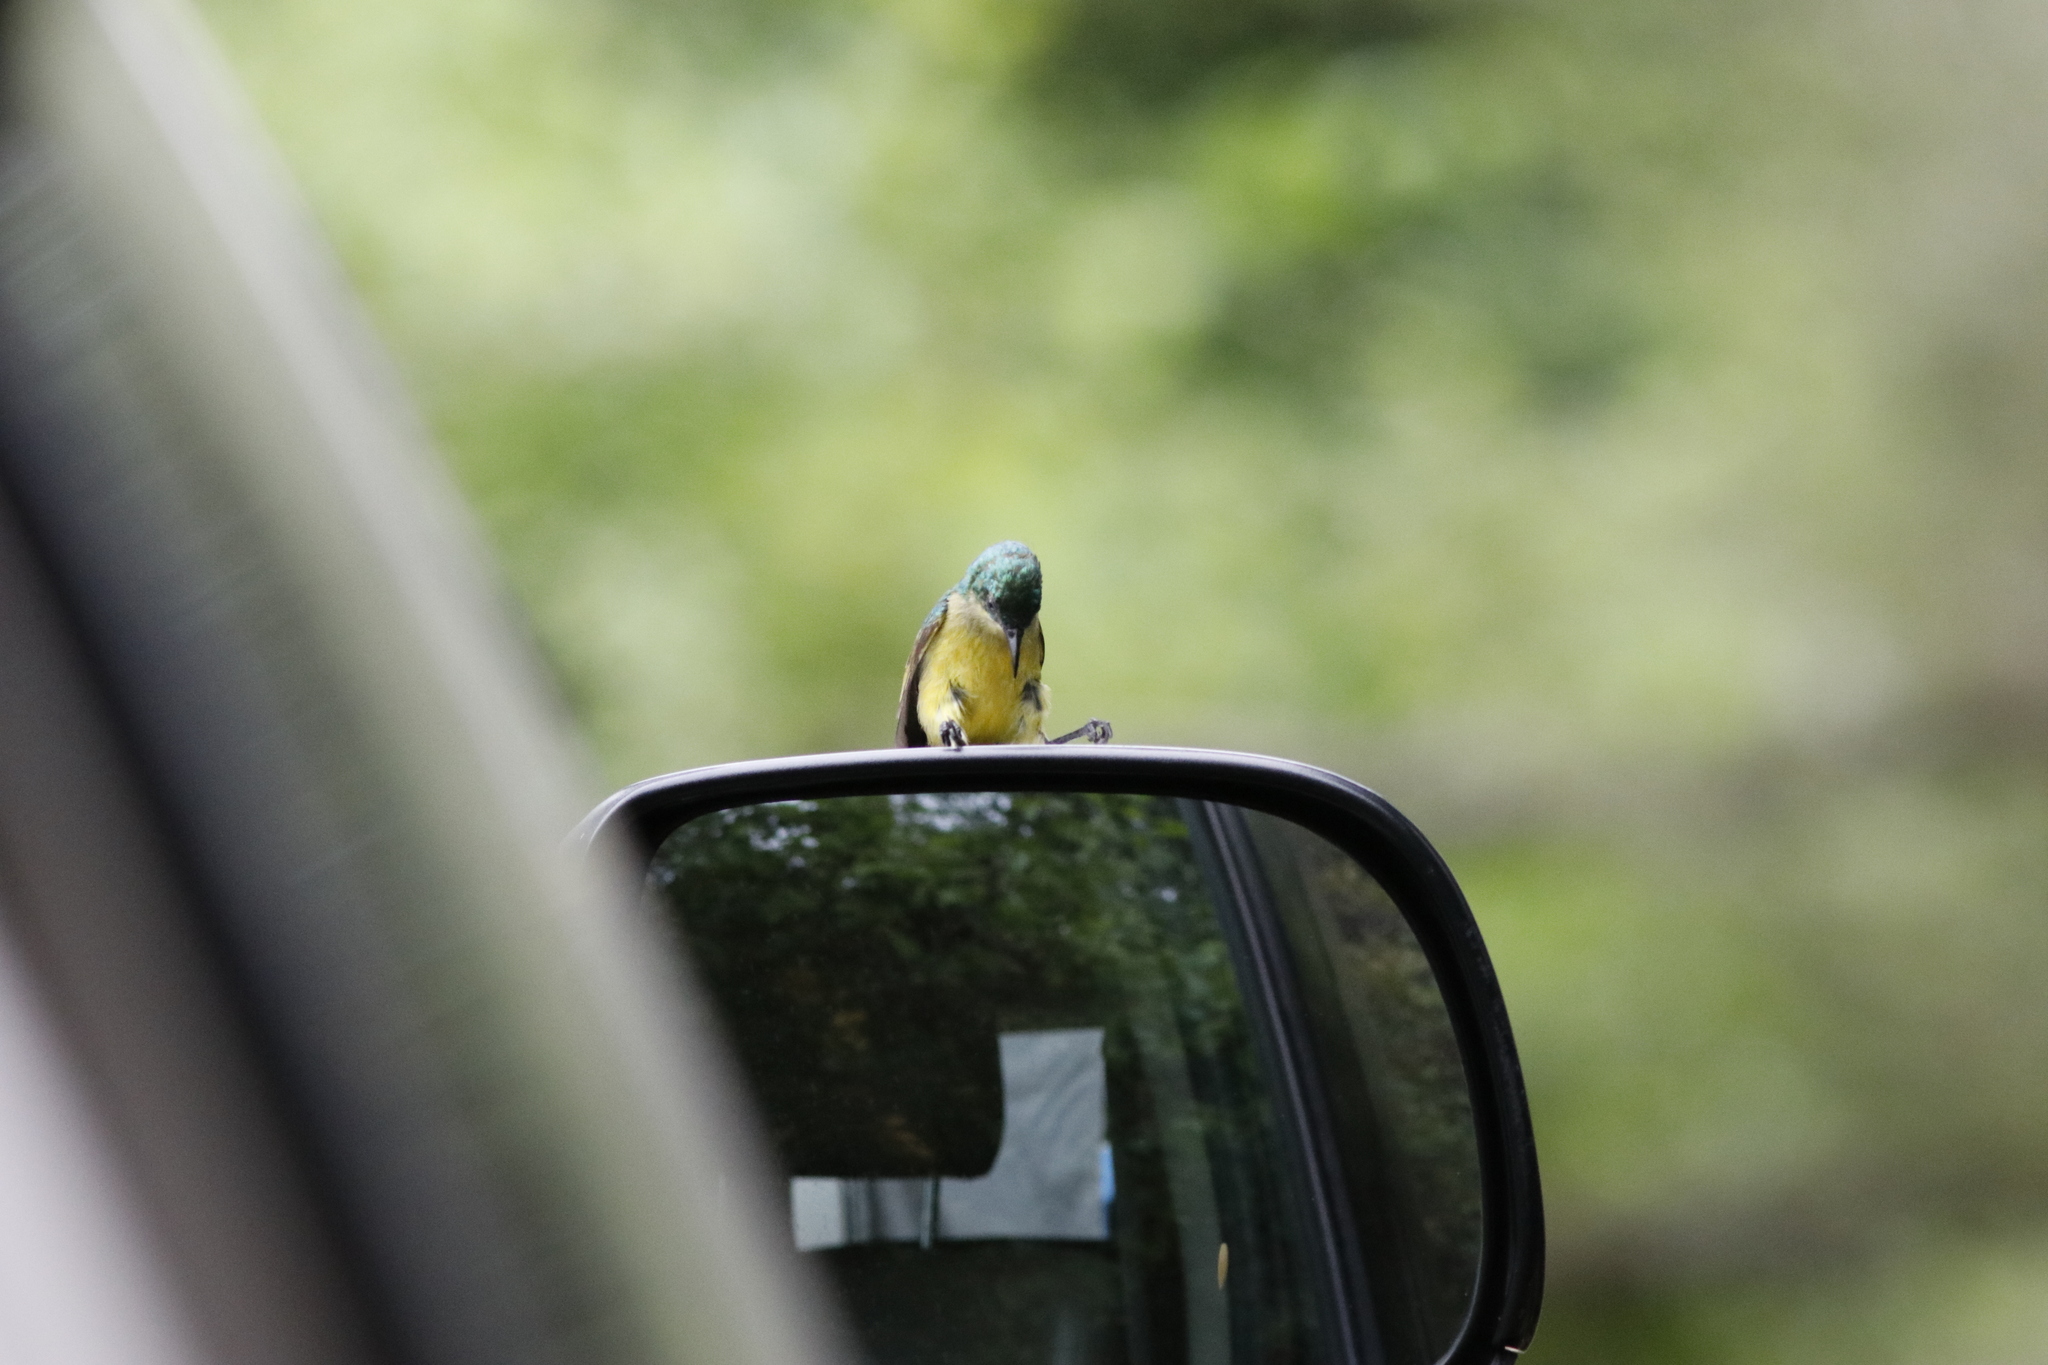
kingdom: Animalia
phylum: Chordata
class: Aves
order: Passeriformes
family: Nectariniidae
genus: Hedydipna
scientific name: Hedydipna collaris
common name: Collared sunbird
